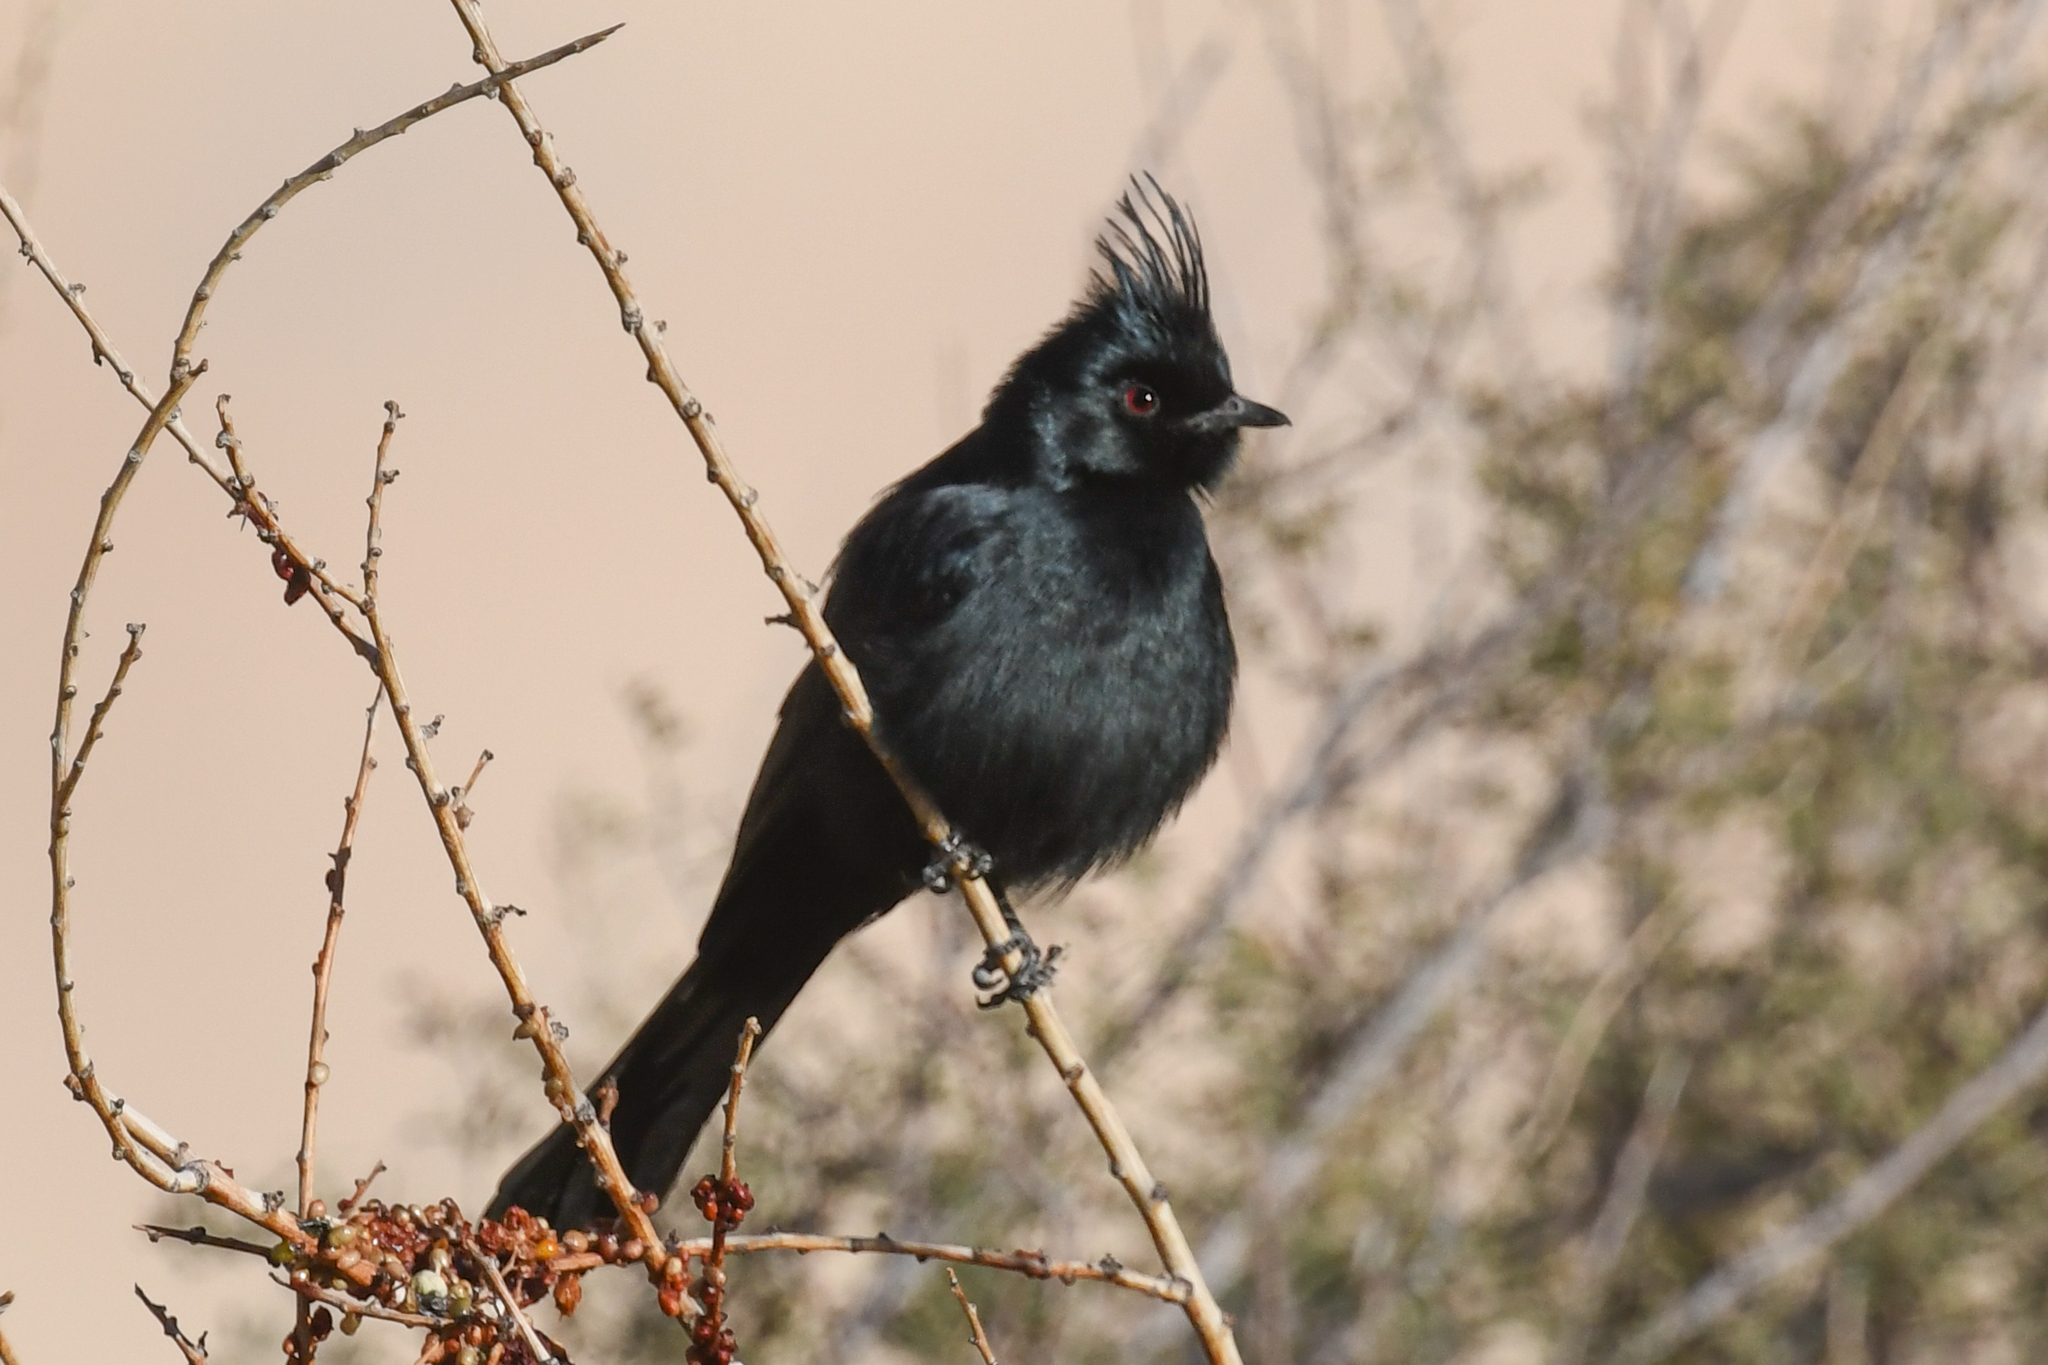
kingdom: Animalia
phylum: Chordata
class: Aves
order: Passeriformes
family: Ptilogonatidae
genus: Phainopepla
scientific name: Phainopepla nitens
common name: Phainopepla
